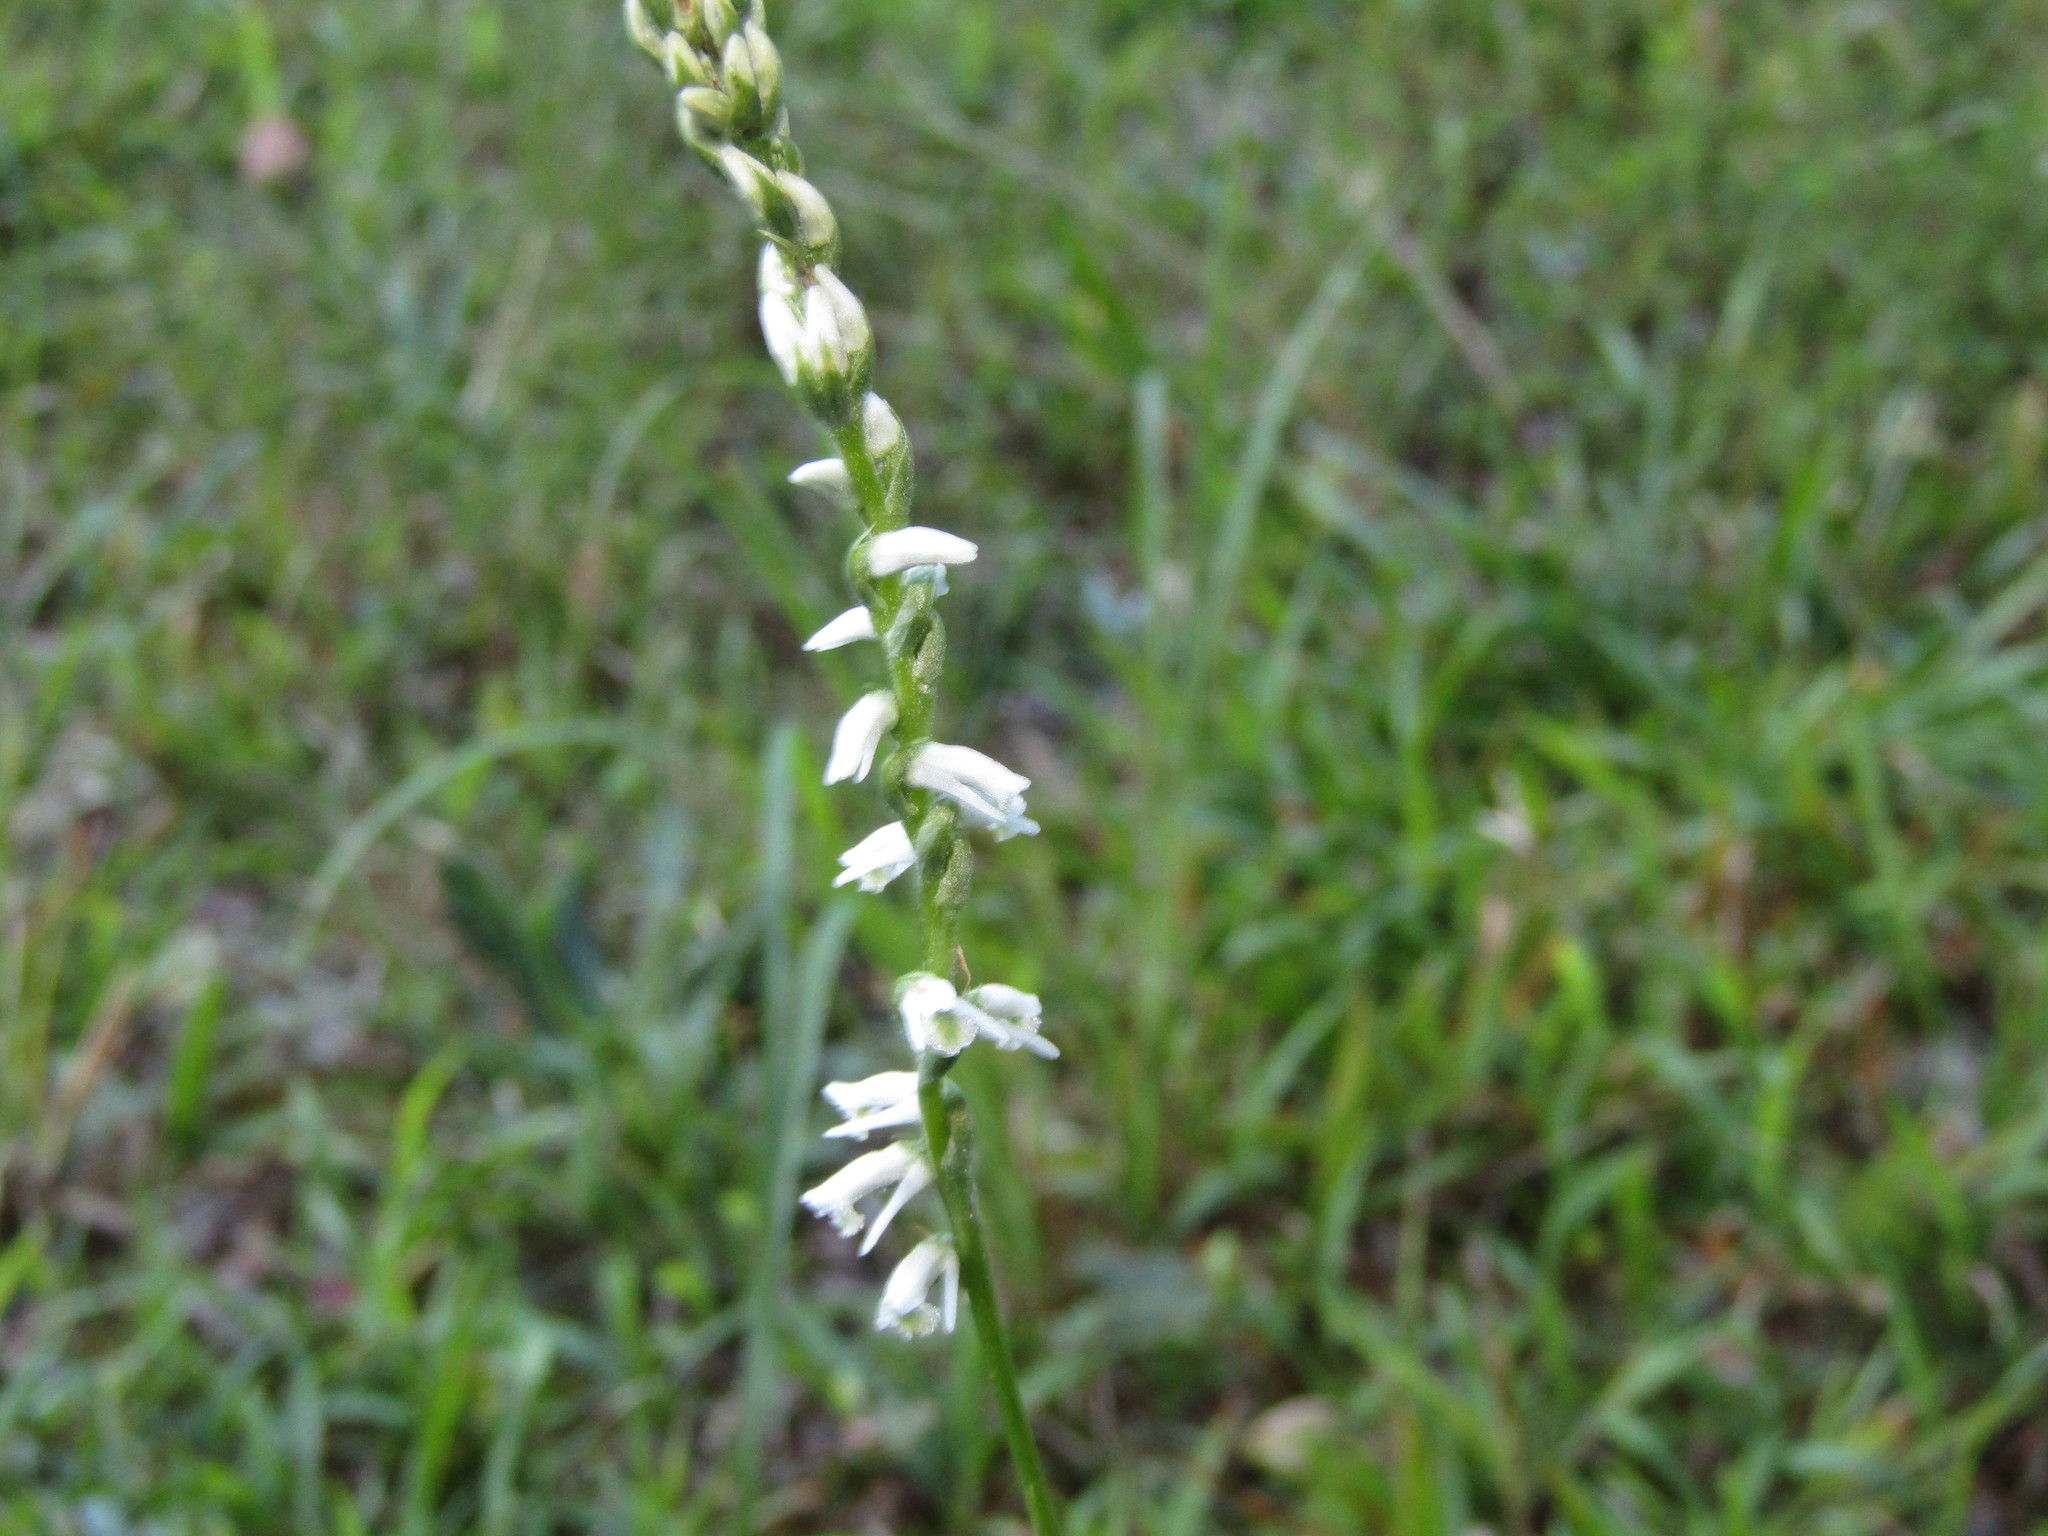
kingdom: Plantae
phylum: Tracheophyta
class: Liliopsida
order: Asparagales
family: Orchidaceae
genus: Spiranthes
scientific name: Spiranthes lacera
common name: Northern slender ladies'-tresses
